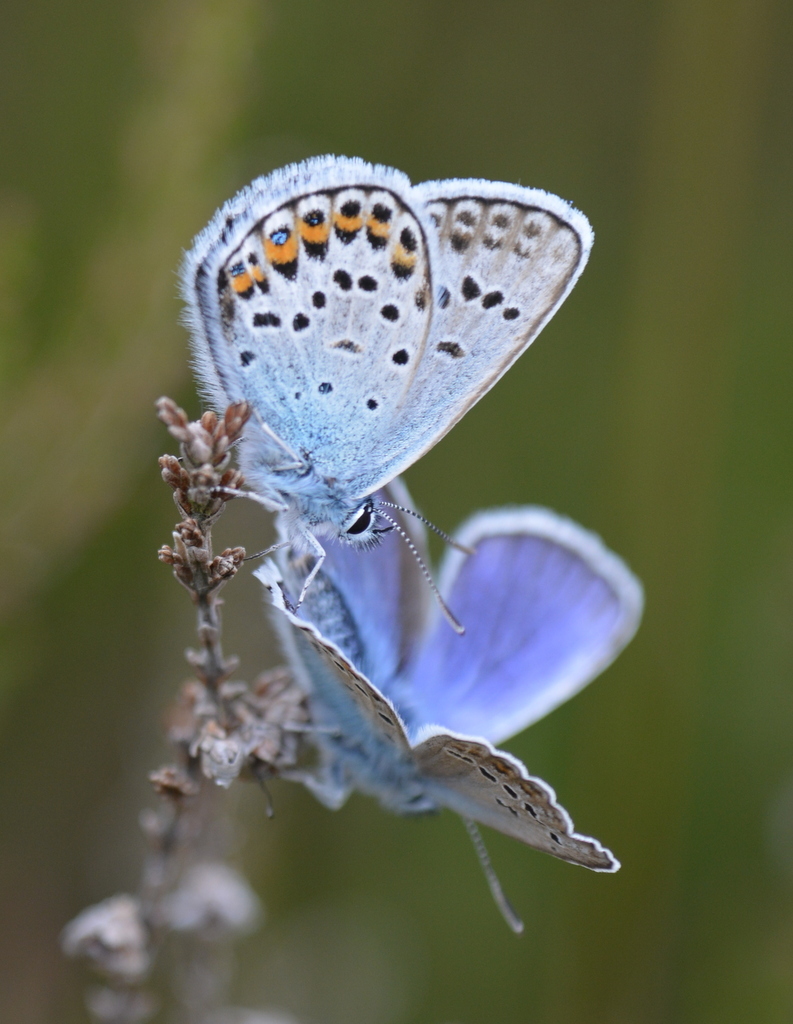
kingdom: Animalia
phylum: Arthropoda
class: Insecta
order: Lepidoptera
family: Lycaenidae
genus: Plebejus
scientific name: Plebejus argus
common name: Silver-studded blue
